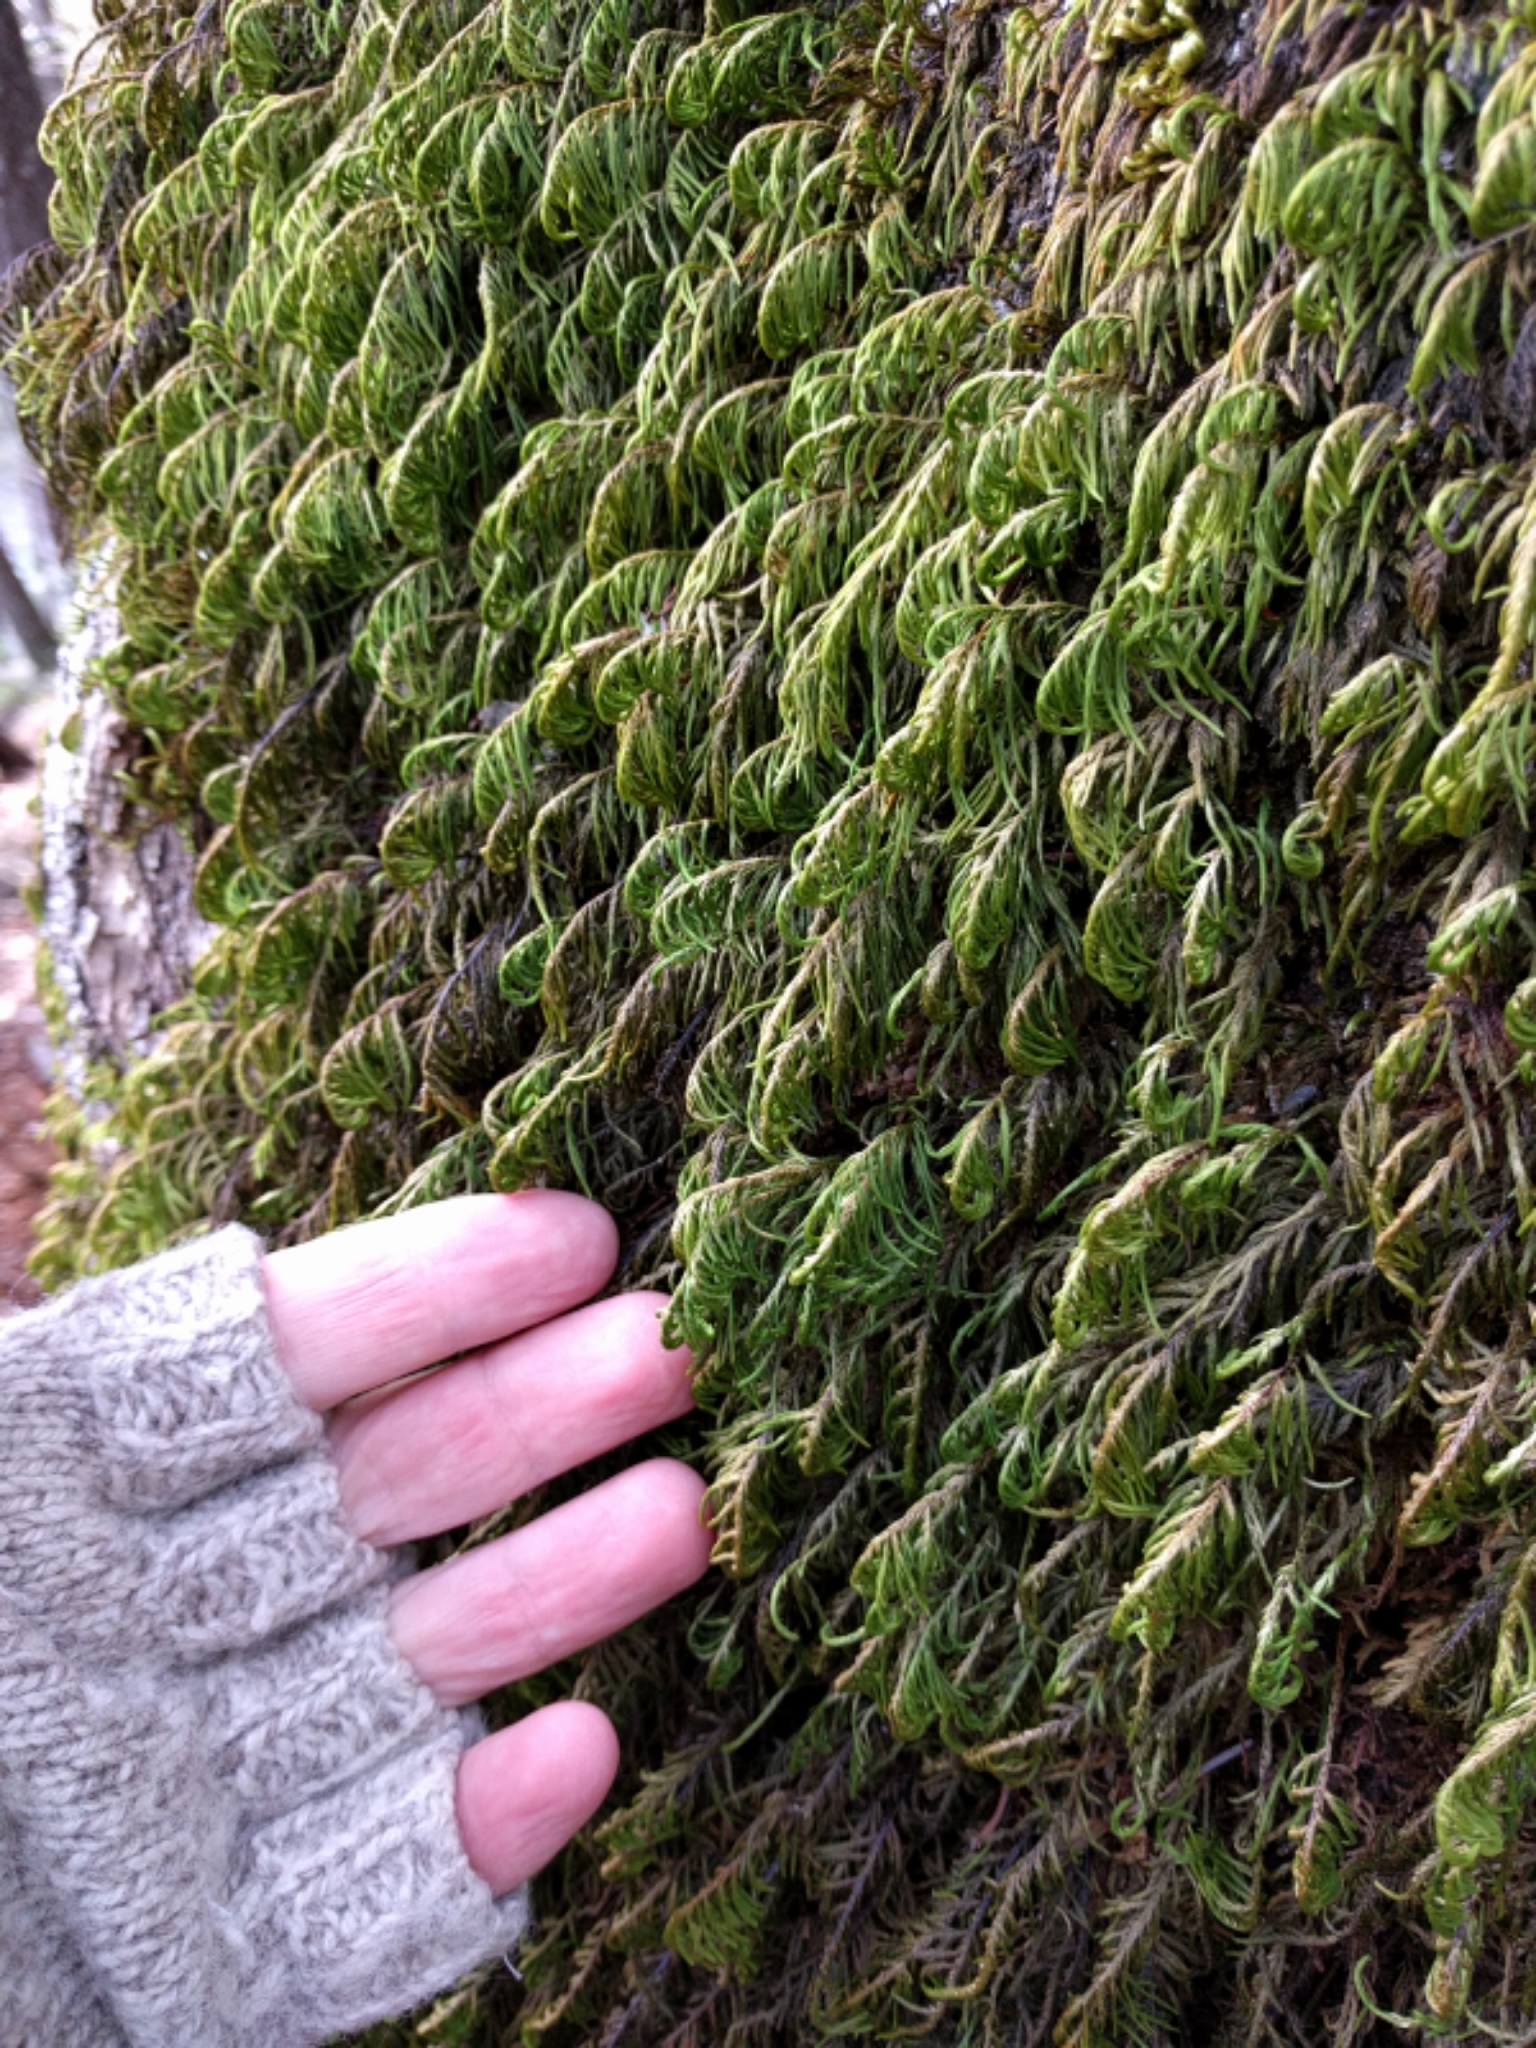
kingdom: Plantae
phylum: Bryophyta
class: Bryopsida
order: Hypnales
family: Cryphaeaceae
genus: Dendroalsia
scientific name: Dendroalsia abietina
